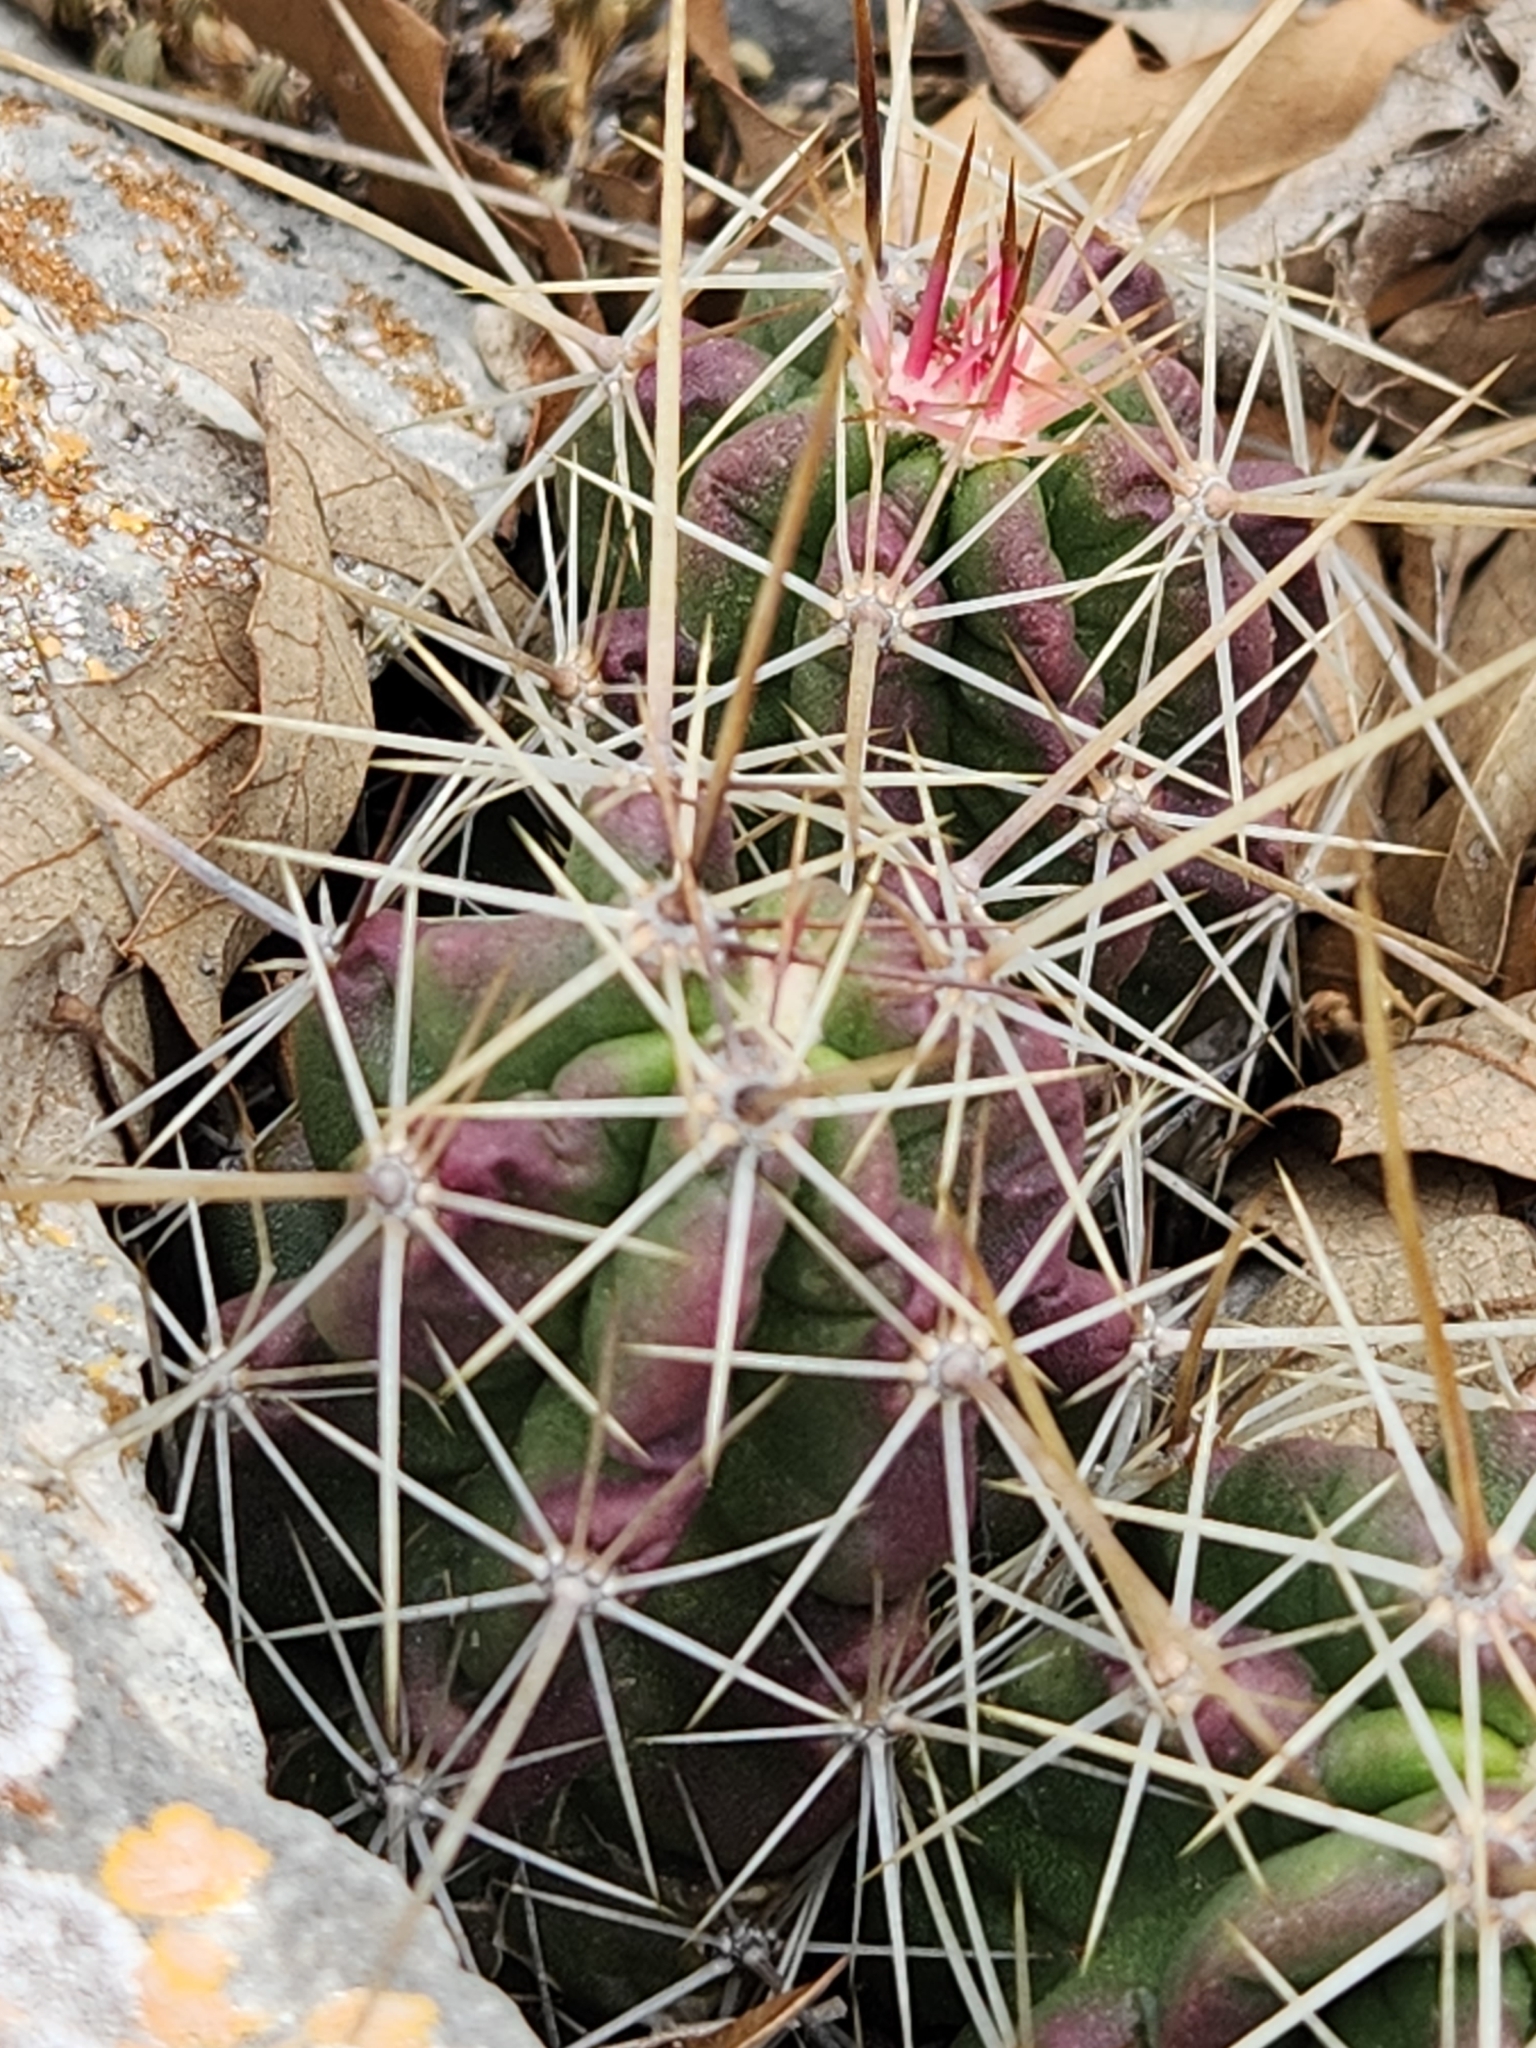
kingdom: Plantae
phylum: Tracheophyta
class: Magnoliopsida
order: Caryophyllales
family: Cactaceae
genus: Echinocereus
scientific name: Echinocereus enneacanthus
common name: Pitaya
